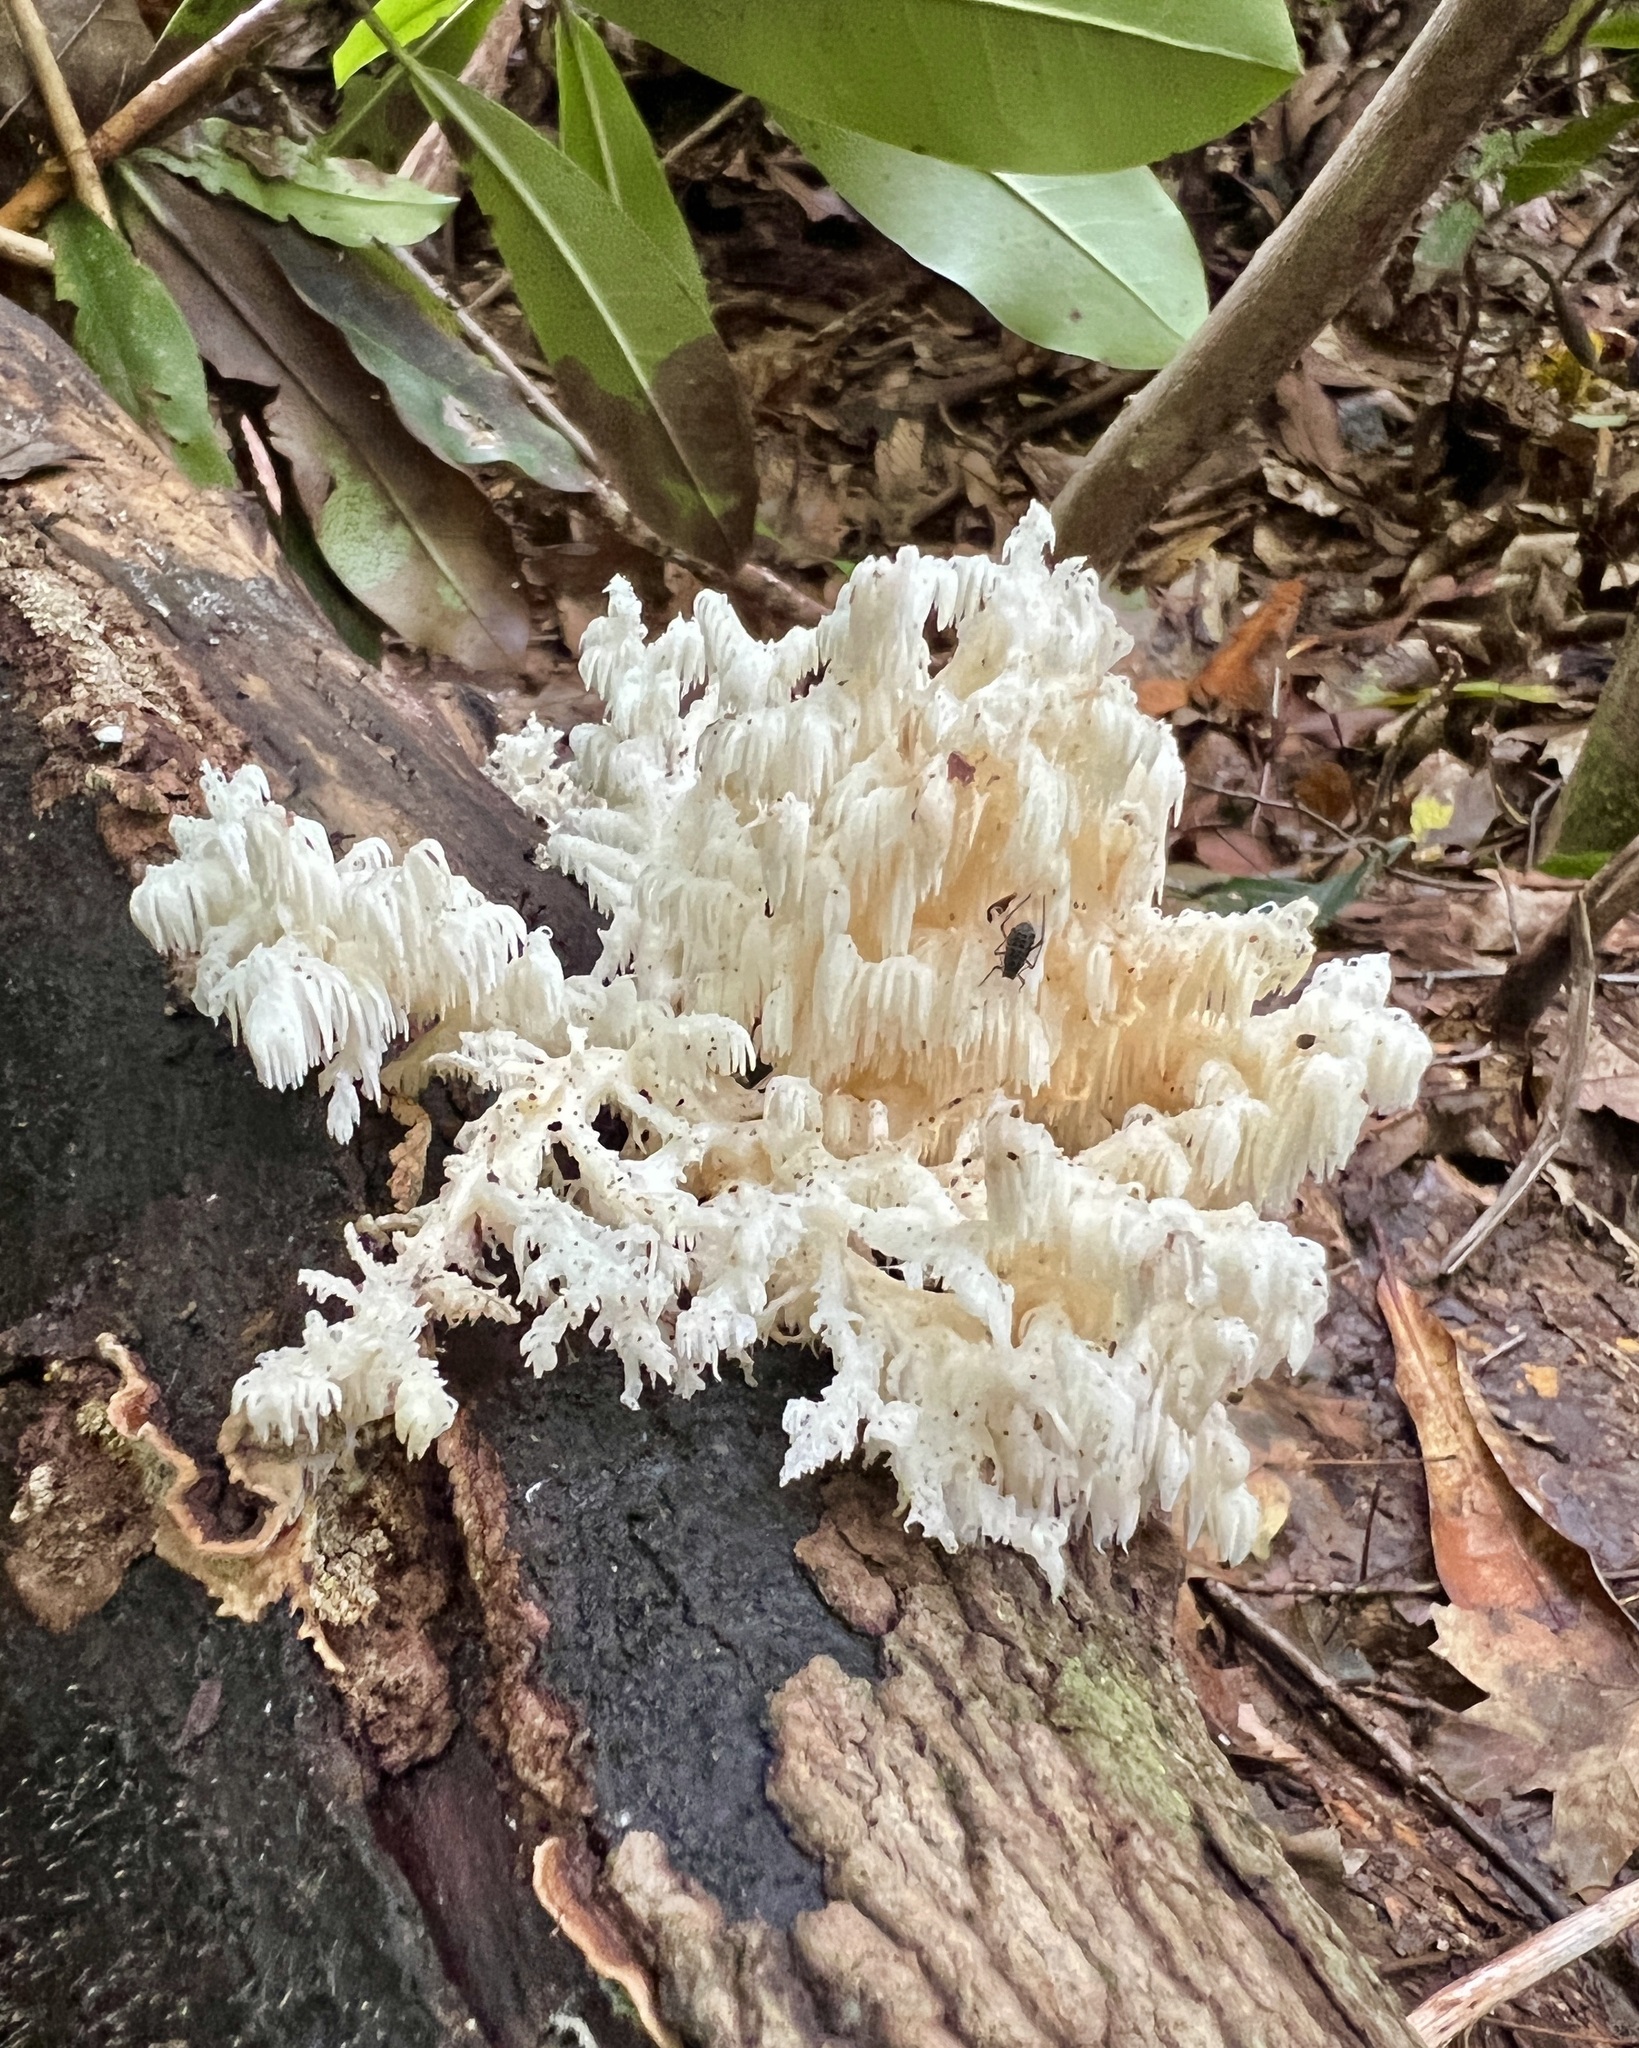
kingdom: Fungi
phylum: Basidiomycota
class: Agaricomycetes
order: Russulales
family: Hericiaceae
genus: Hericium
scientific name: Hericium coralloides
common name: Coral tooth
